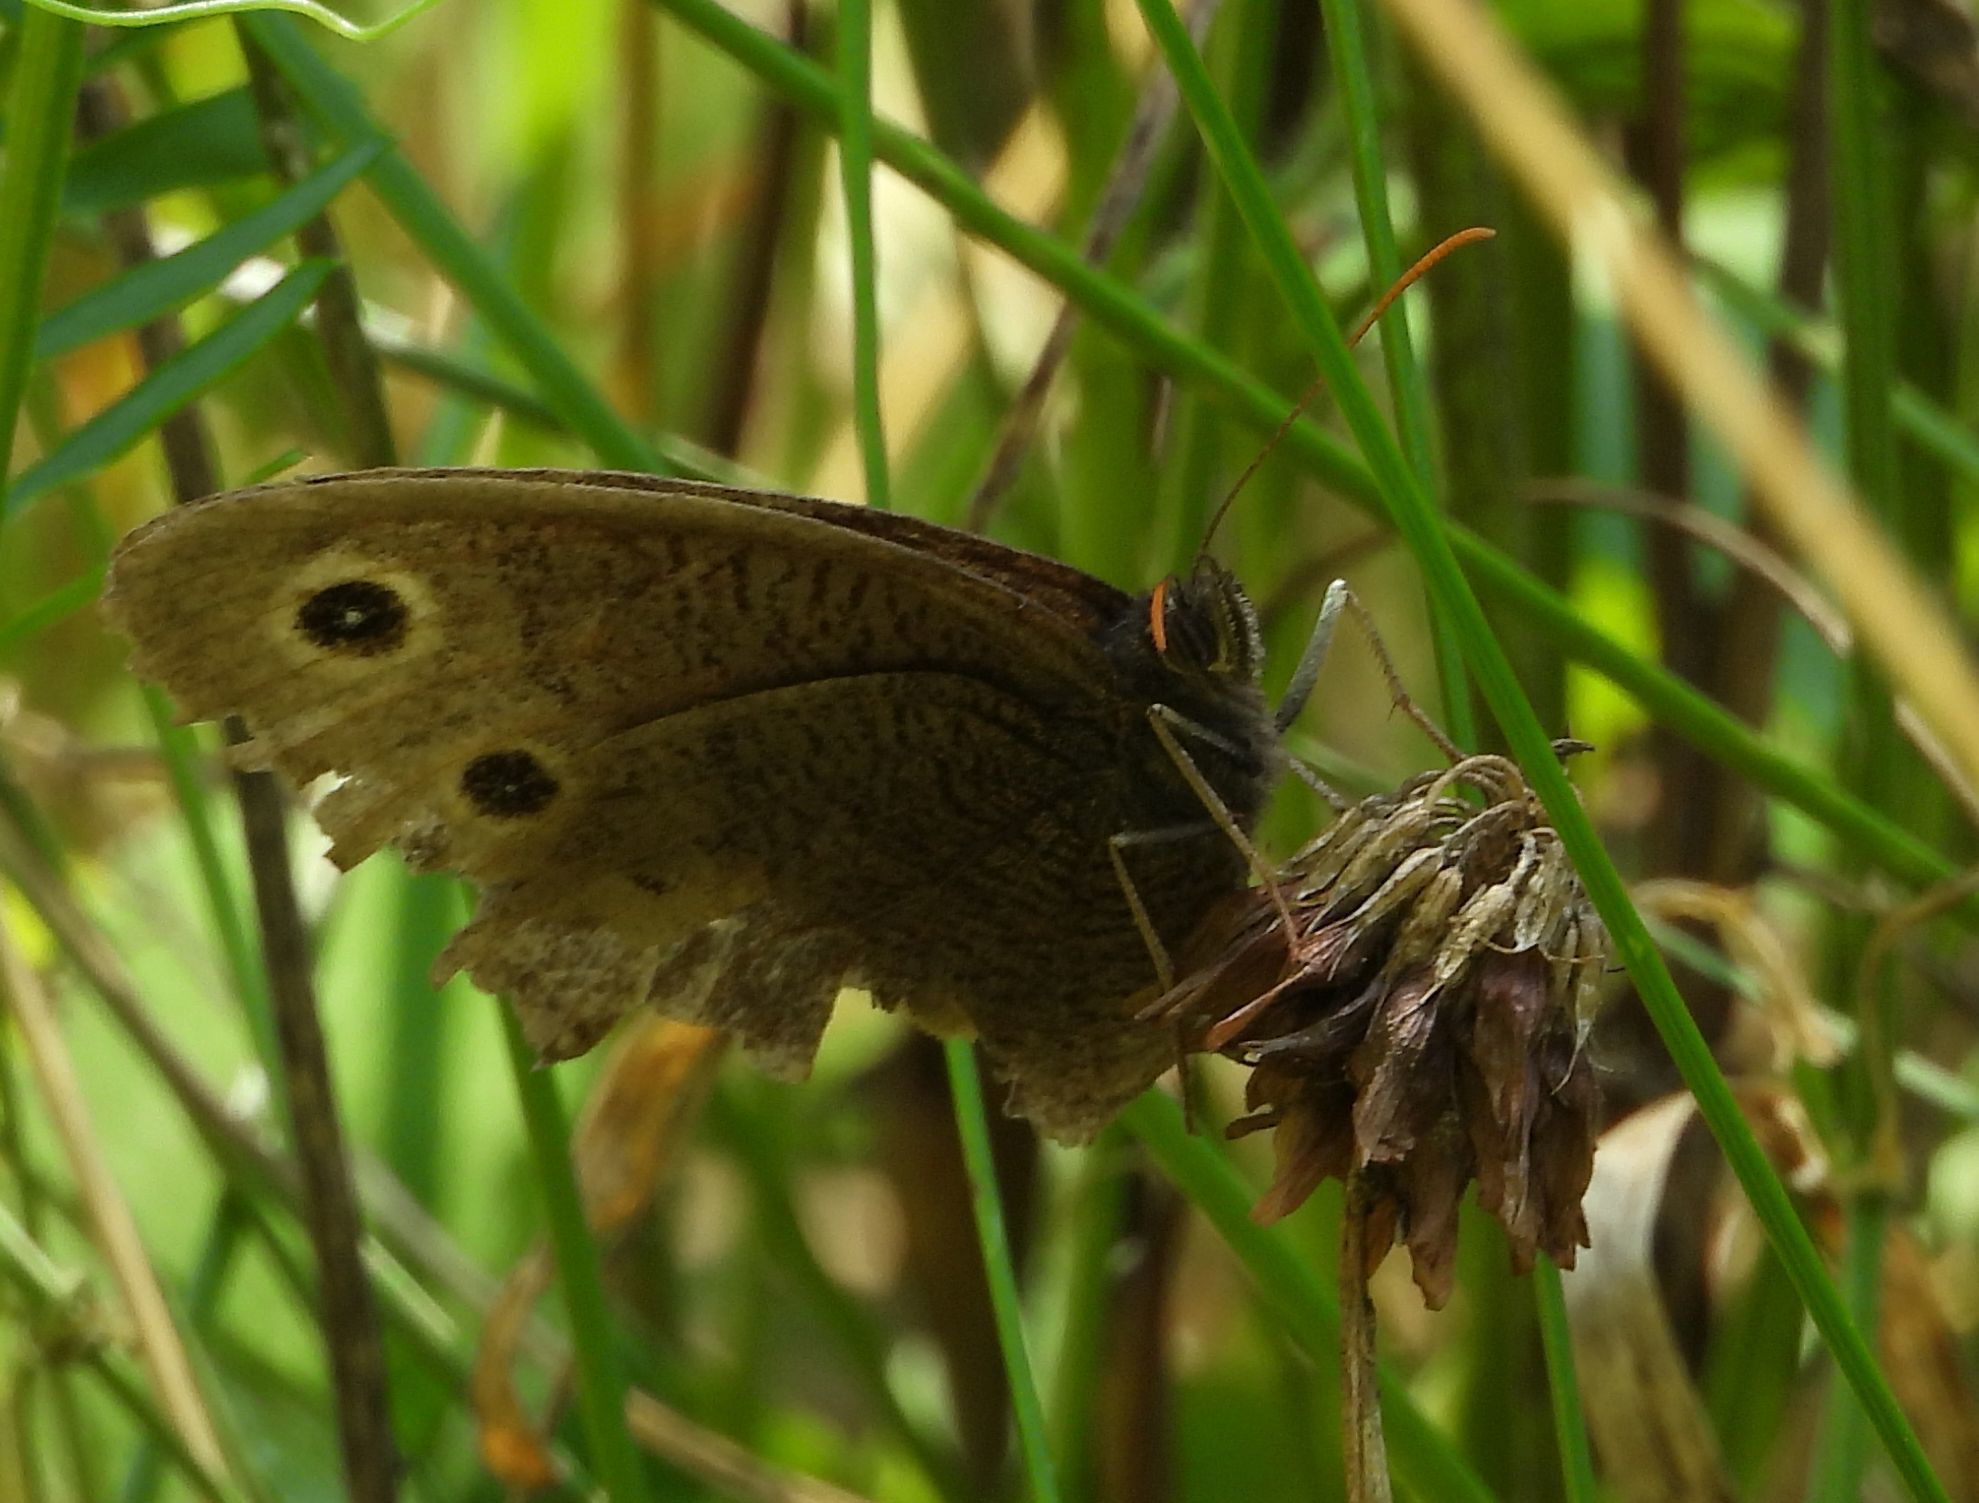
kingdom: Animalia
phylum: Arthropoda
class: Insecta
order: Lepidoptera
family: Nymphalidae
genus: Cercyonis
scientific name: Cercyonis pegala
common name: Common wood-nymph
